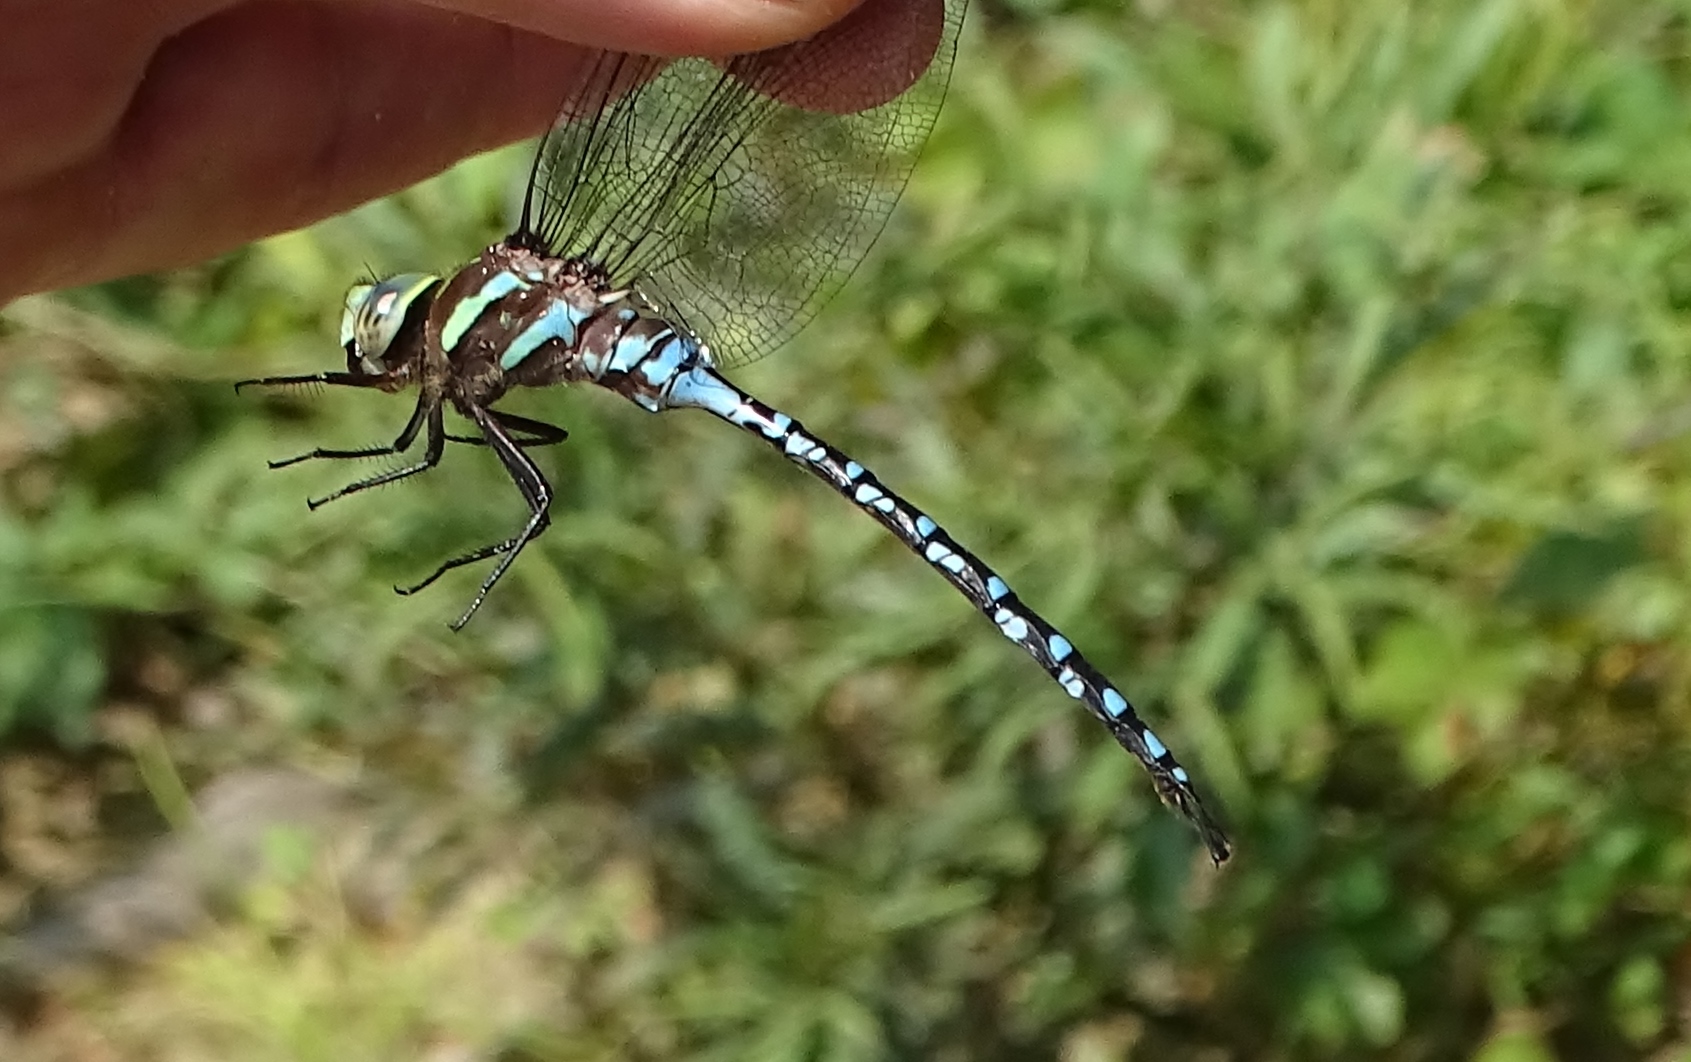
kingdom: Animalia
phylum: Arthropoda
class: Insecta
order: Odonata
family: Aeshnidae
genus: Aeshna
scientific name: Aeshna constricta
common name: Lance-tipped darner
